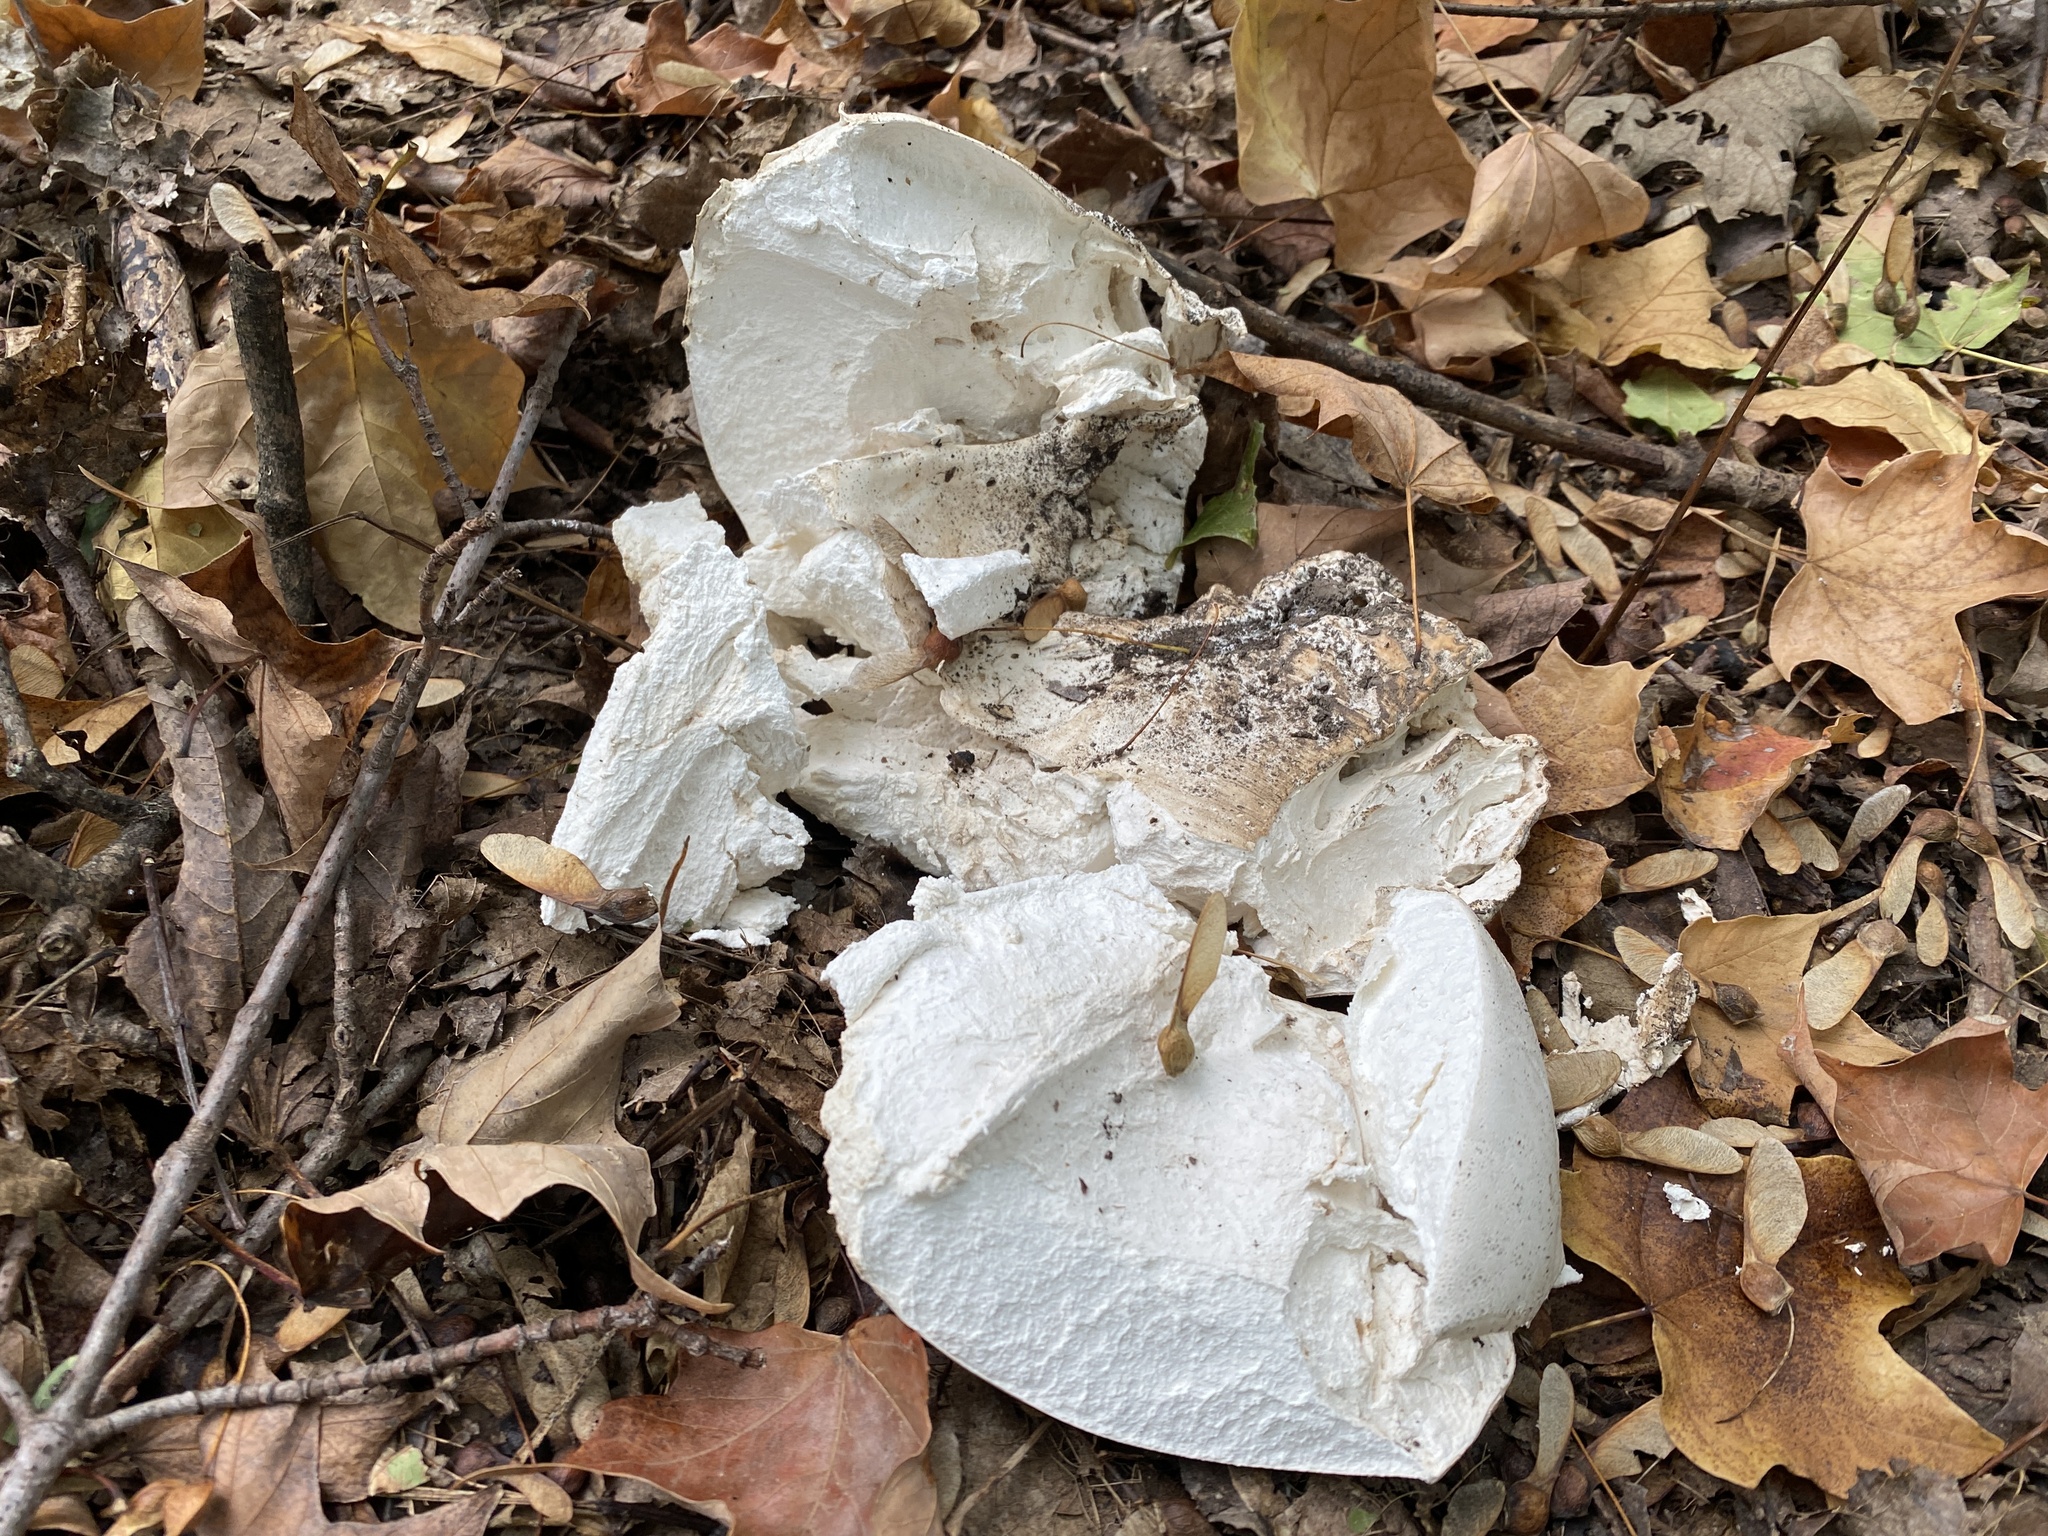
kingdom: Fungi
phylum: Basidiomycota
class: Agaricomycetes
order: Agaricales
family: Lycoperdaceae
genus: Calvatia
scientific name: Calvatia gigantea
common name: Giant puffball
